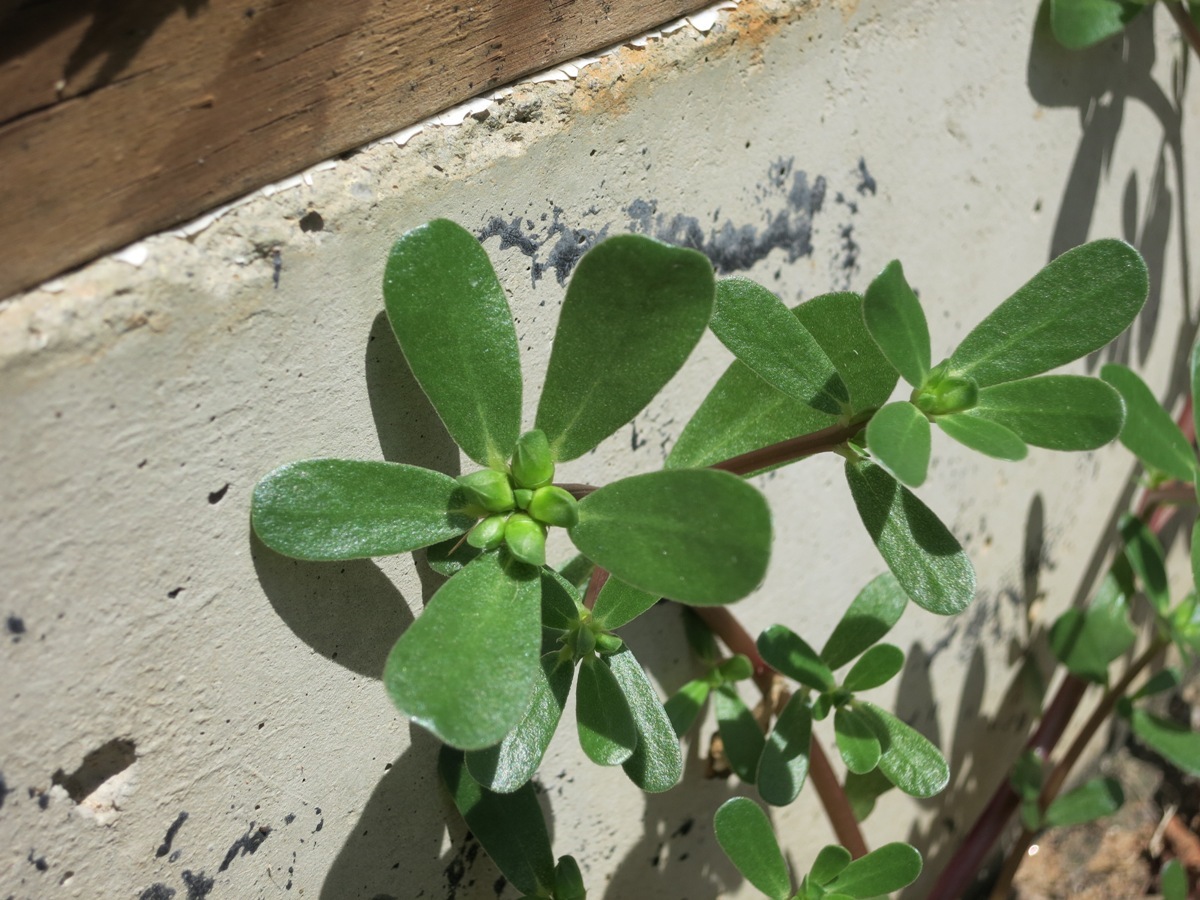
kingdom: Plantae
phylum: Tracheophyta
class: Magnoliopsida
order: Caryophyllales
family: Portulacaceae
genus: Portulaca
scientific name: Portulaca oleracea
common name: Common purslane
